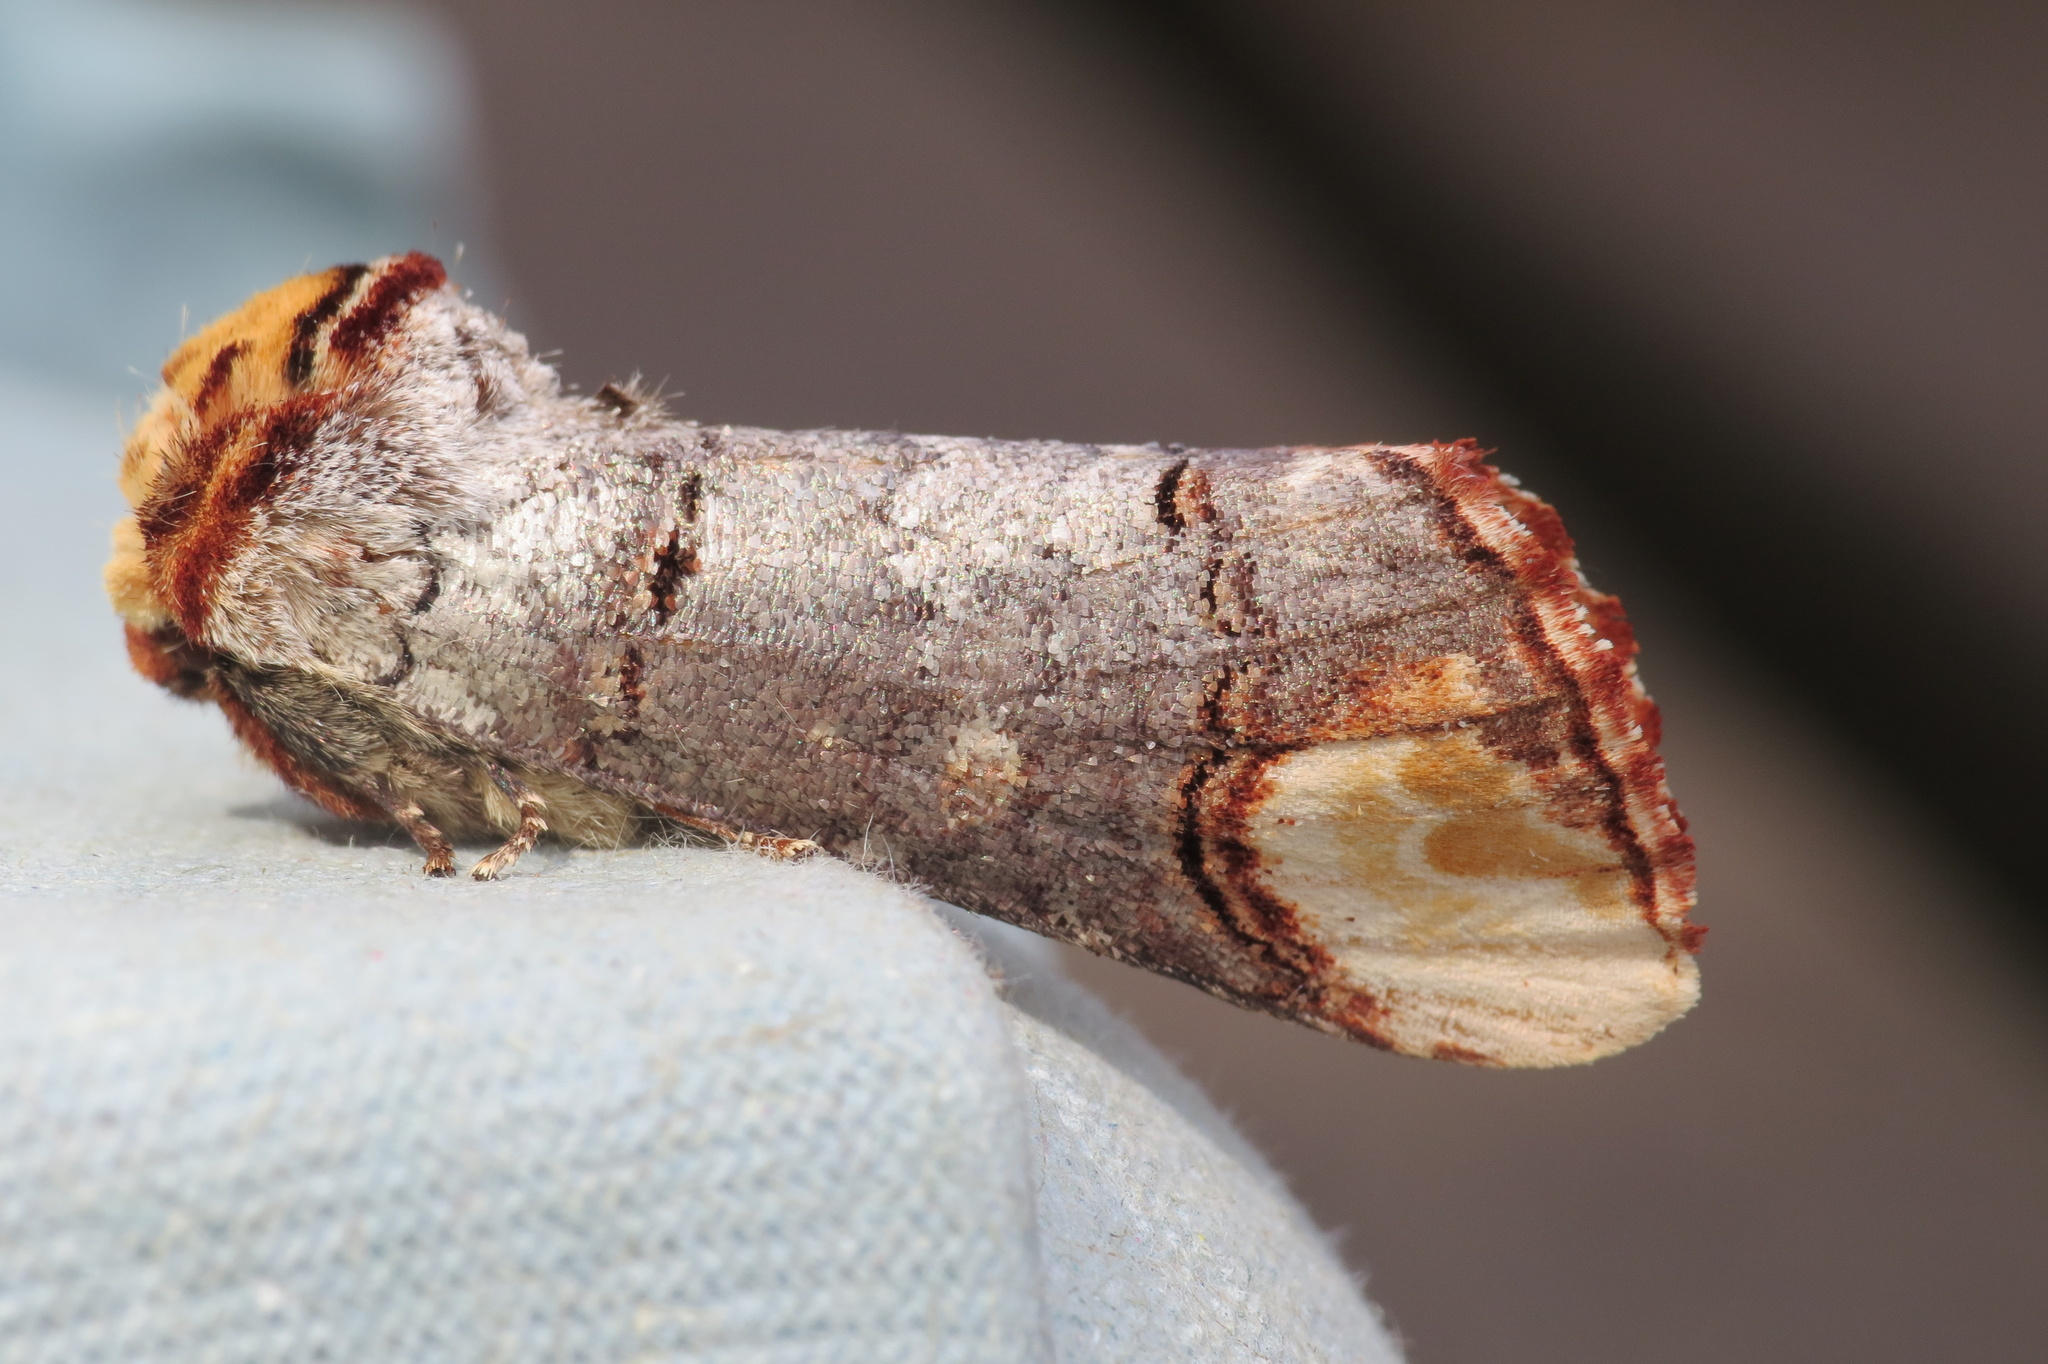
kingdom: Animalia
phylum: Arthropoda
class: Insecta
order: Lepidoptera
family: Notodontidae
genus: Phalera
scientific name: Phalera bucephala
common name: Buff-tip
